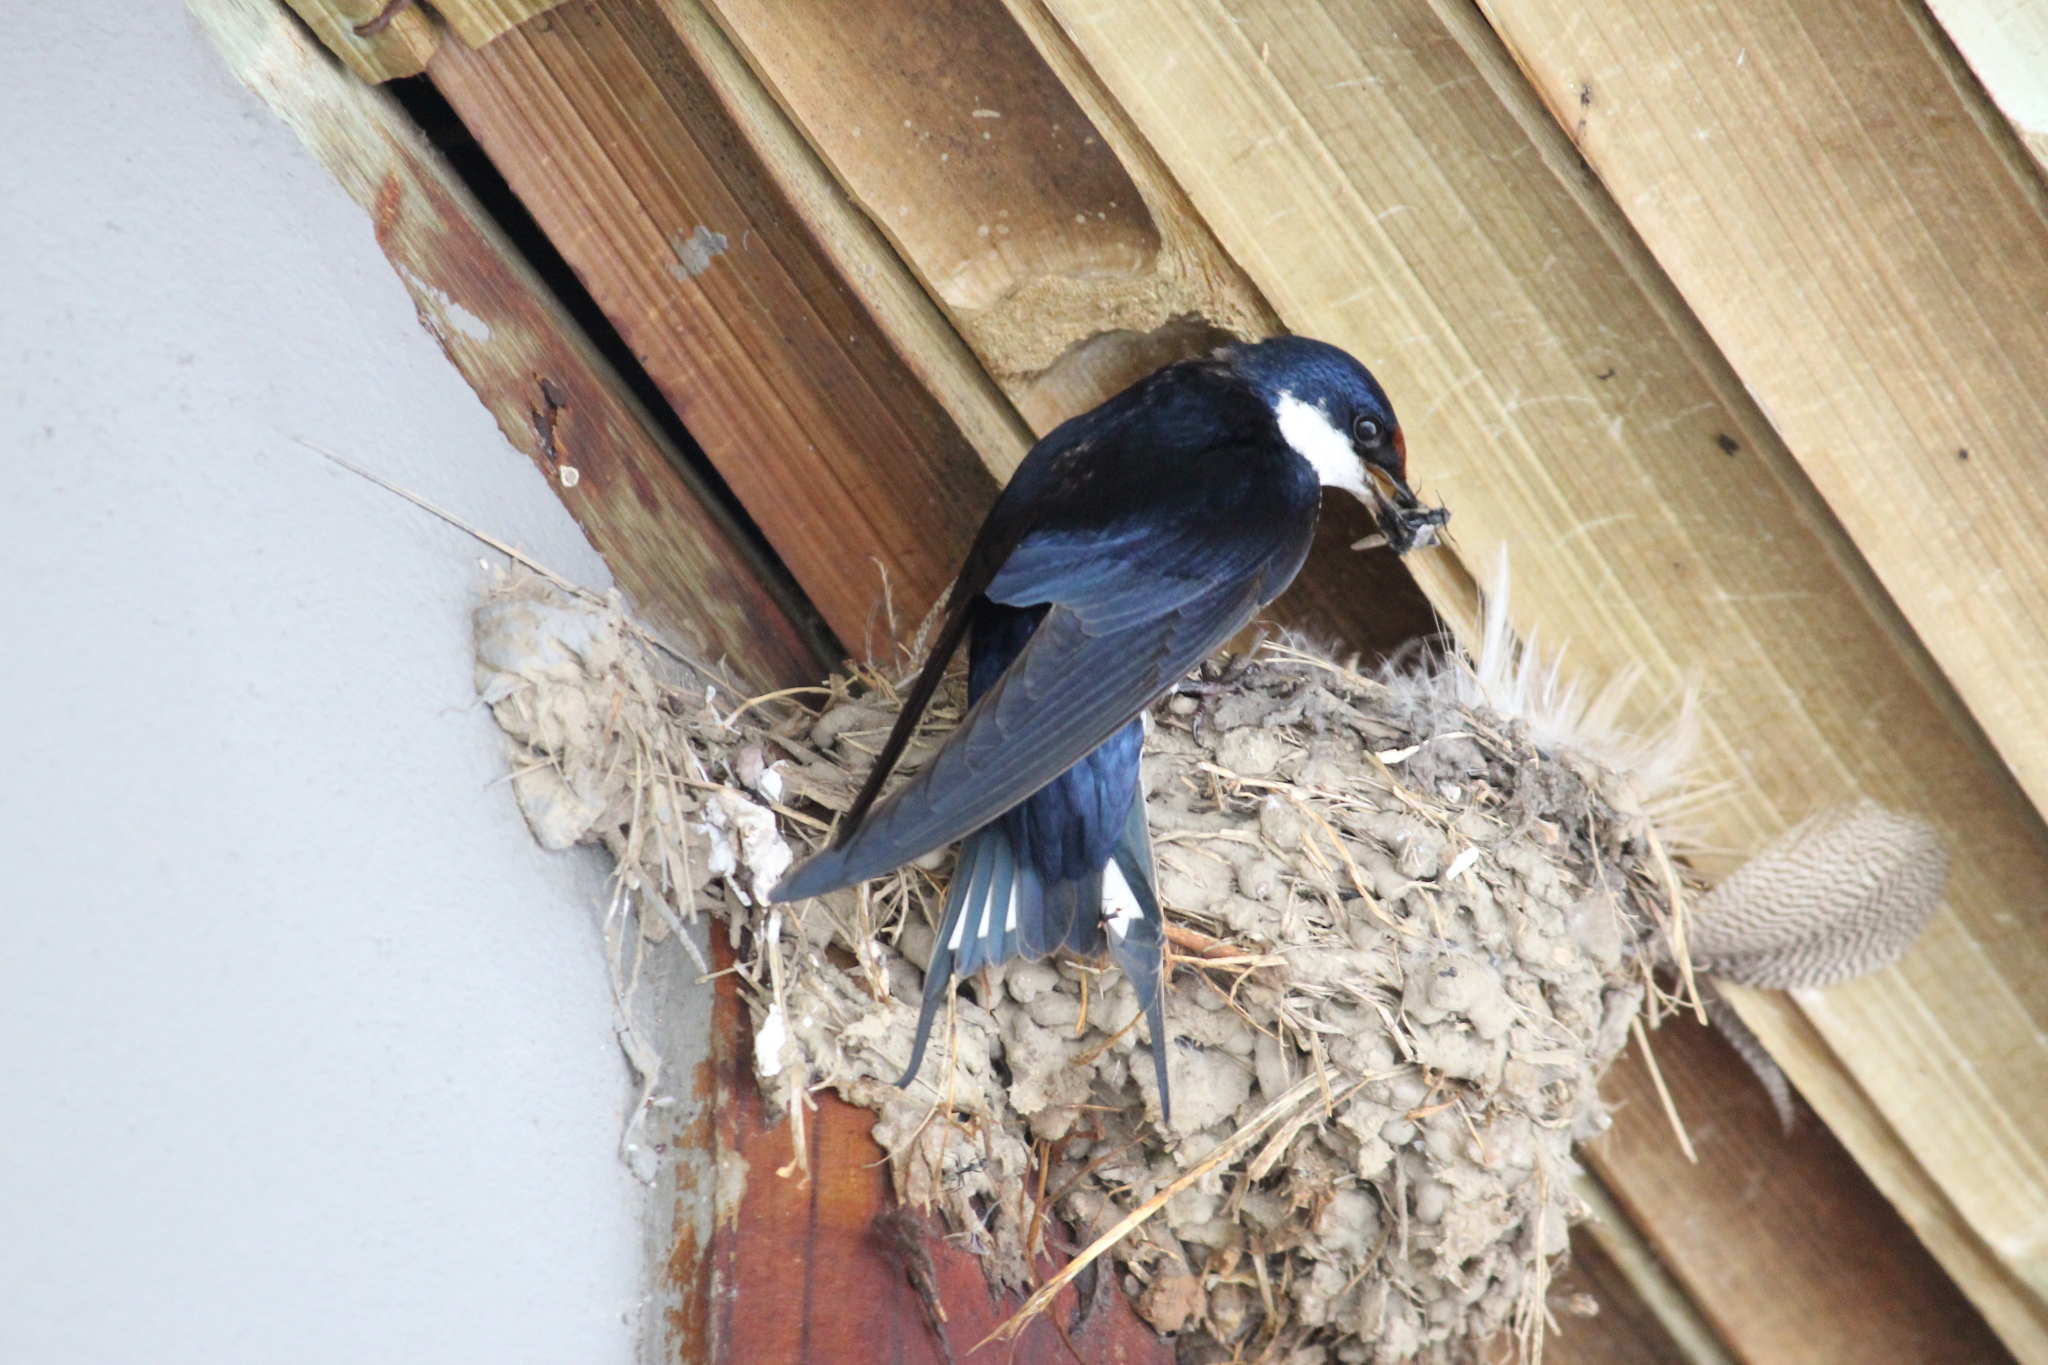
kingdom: Animalia
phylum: Chordata
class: Aves
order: Passeriformes
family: Hirundinidae
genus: Hirundo
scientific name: Hirundo albigularis
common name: White-throated swallow
